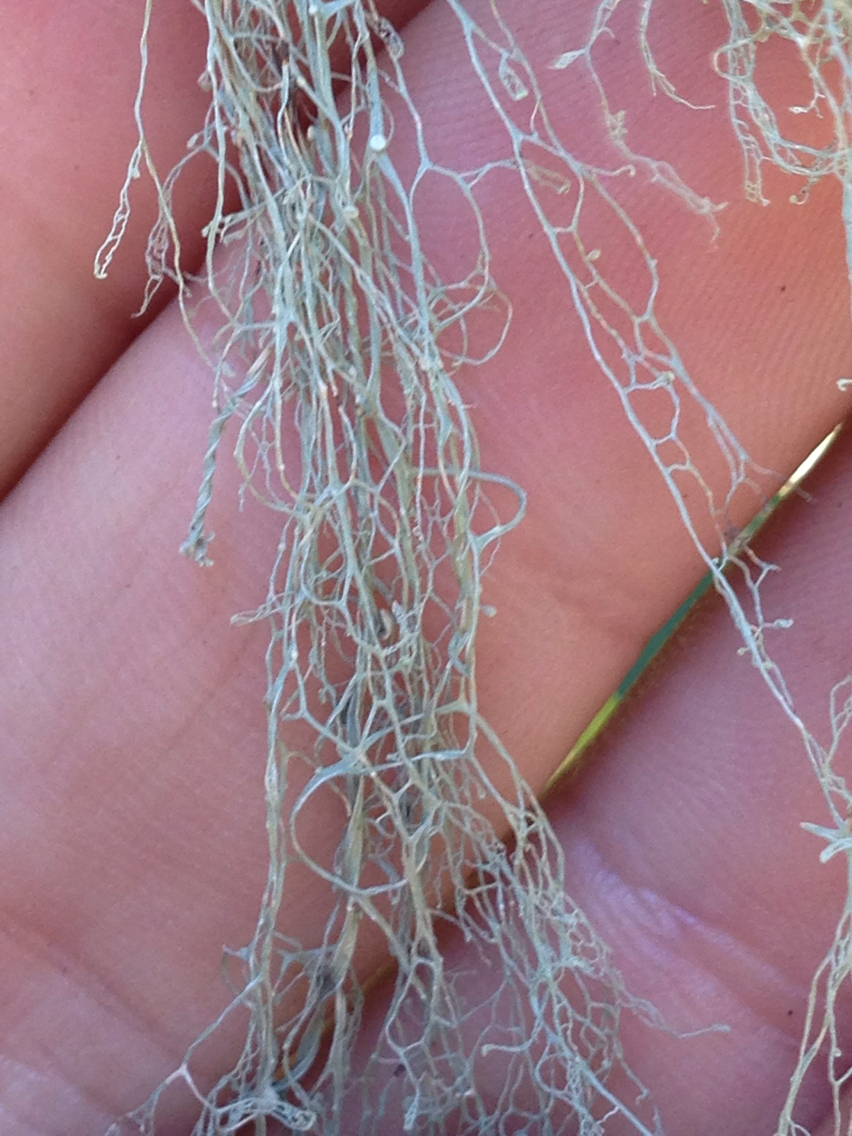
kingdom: Fungi
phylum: Ascomycota
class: Lecanoromycetes
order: Lecanorales
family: Ramalinaceae
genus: Ramalina
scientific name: Ramalina menziesii
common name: Lace lichen
